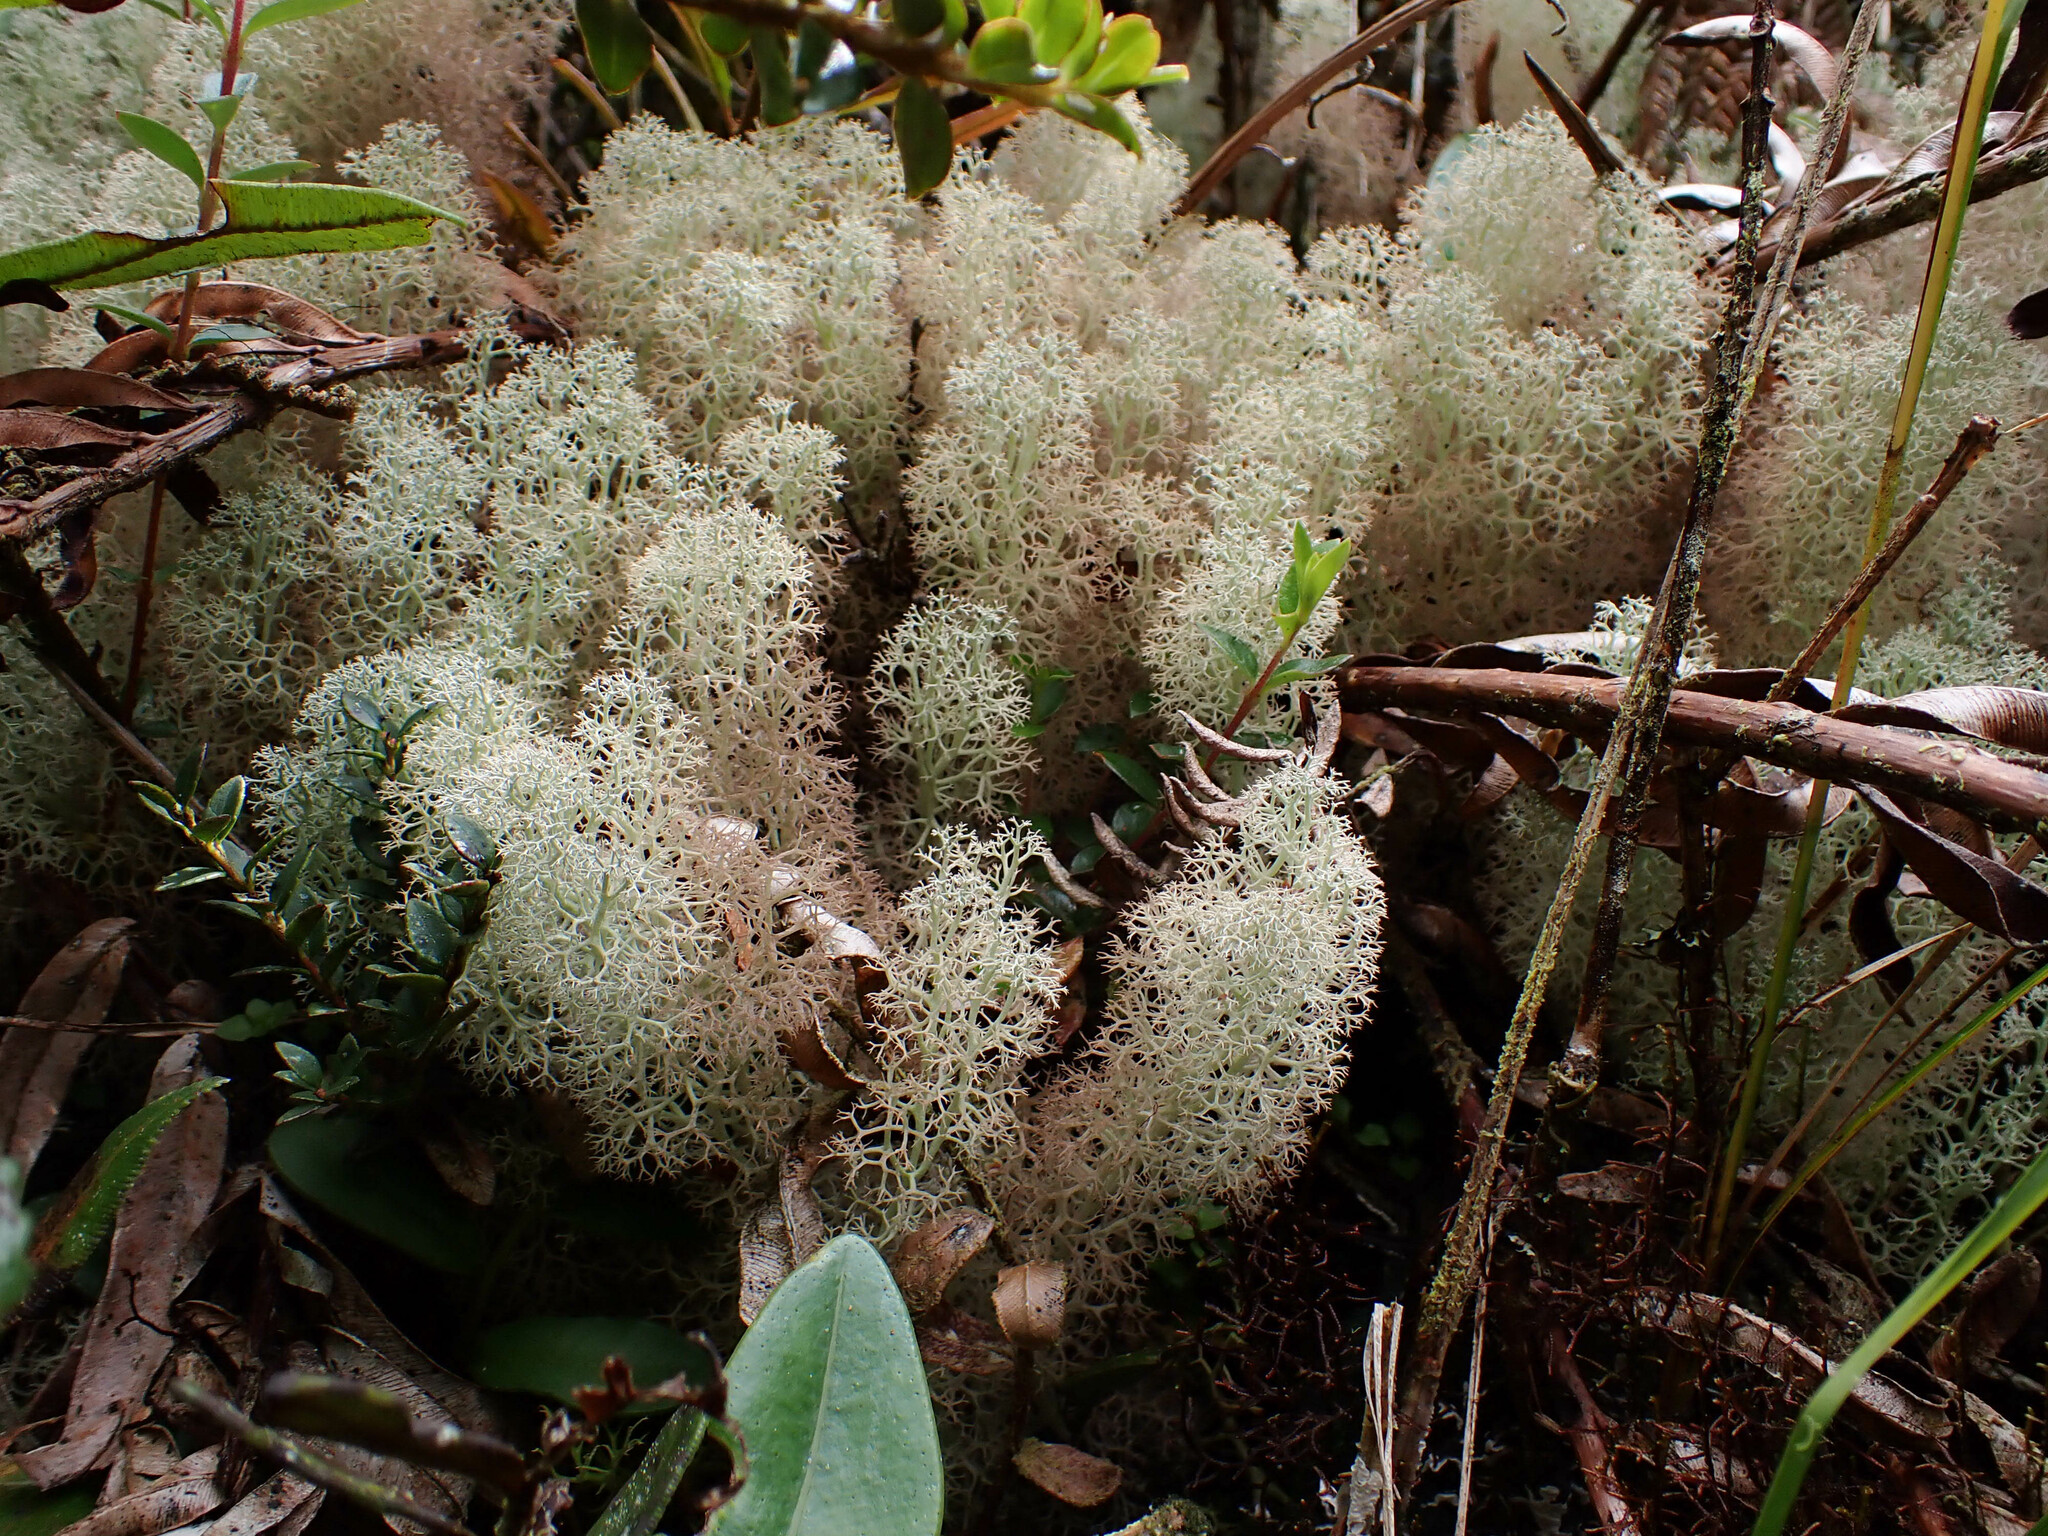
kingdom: Fungi
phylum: Ascomycota
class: Lecanoromycetes
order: Lecanorales
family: Cladoniaceae
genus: Cladonia
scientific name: Cladonia confusa
